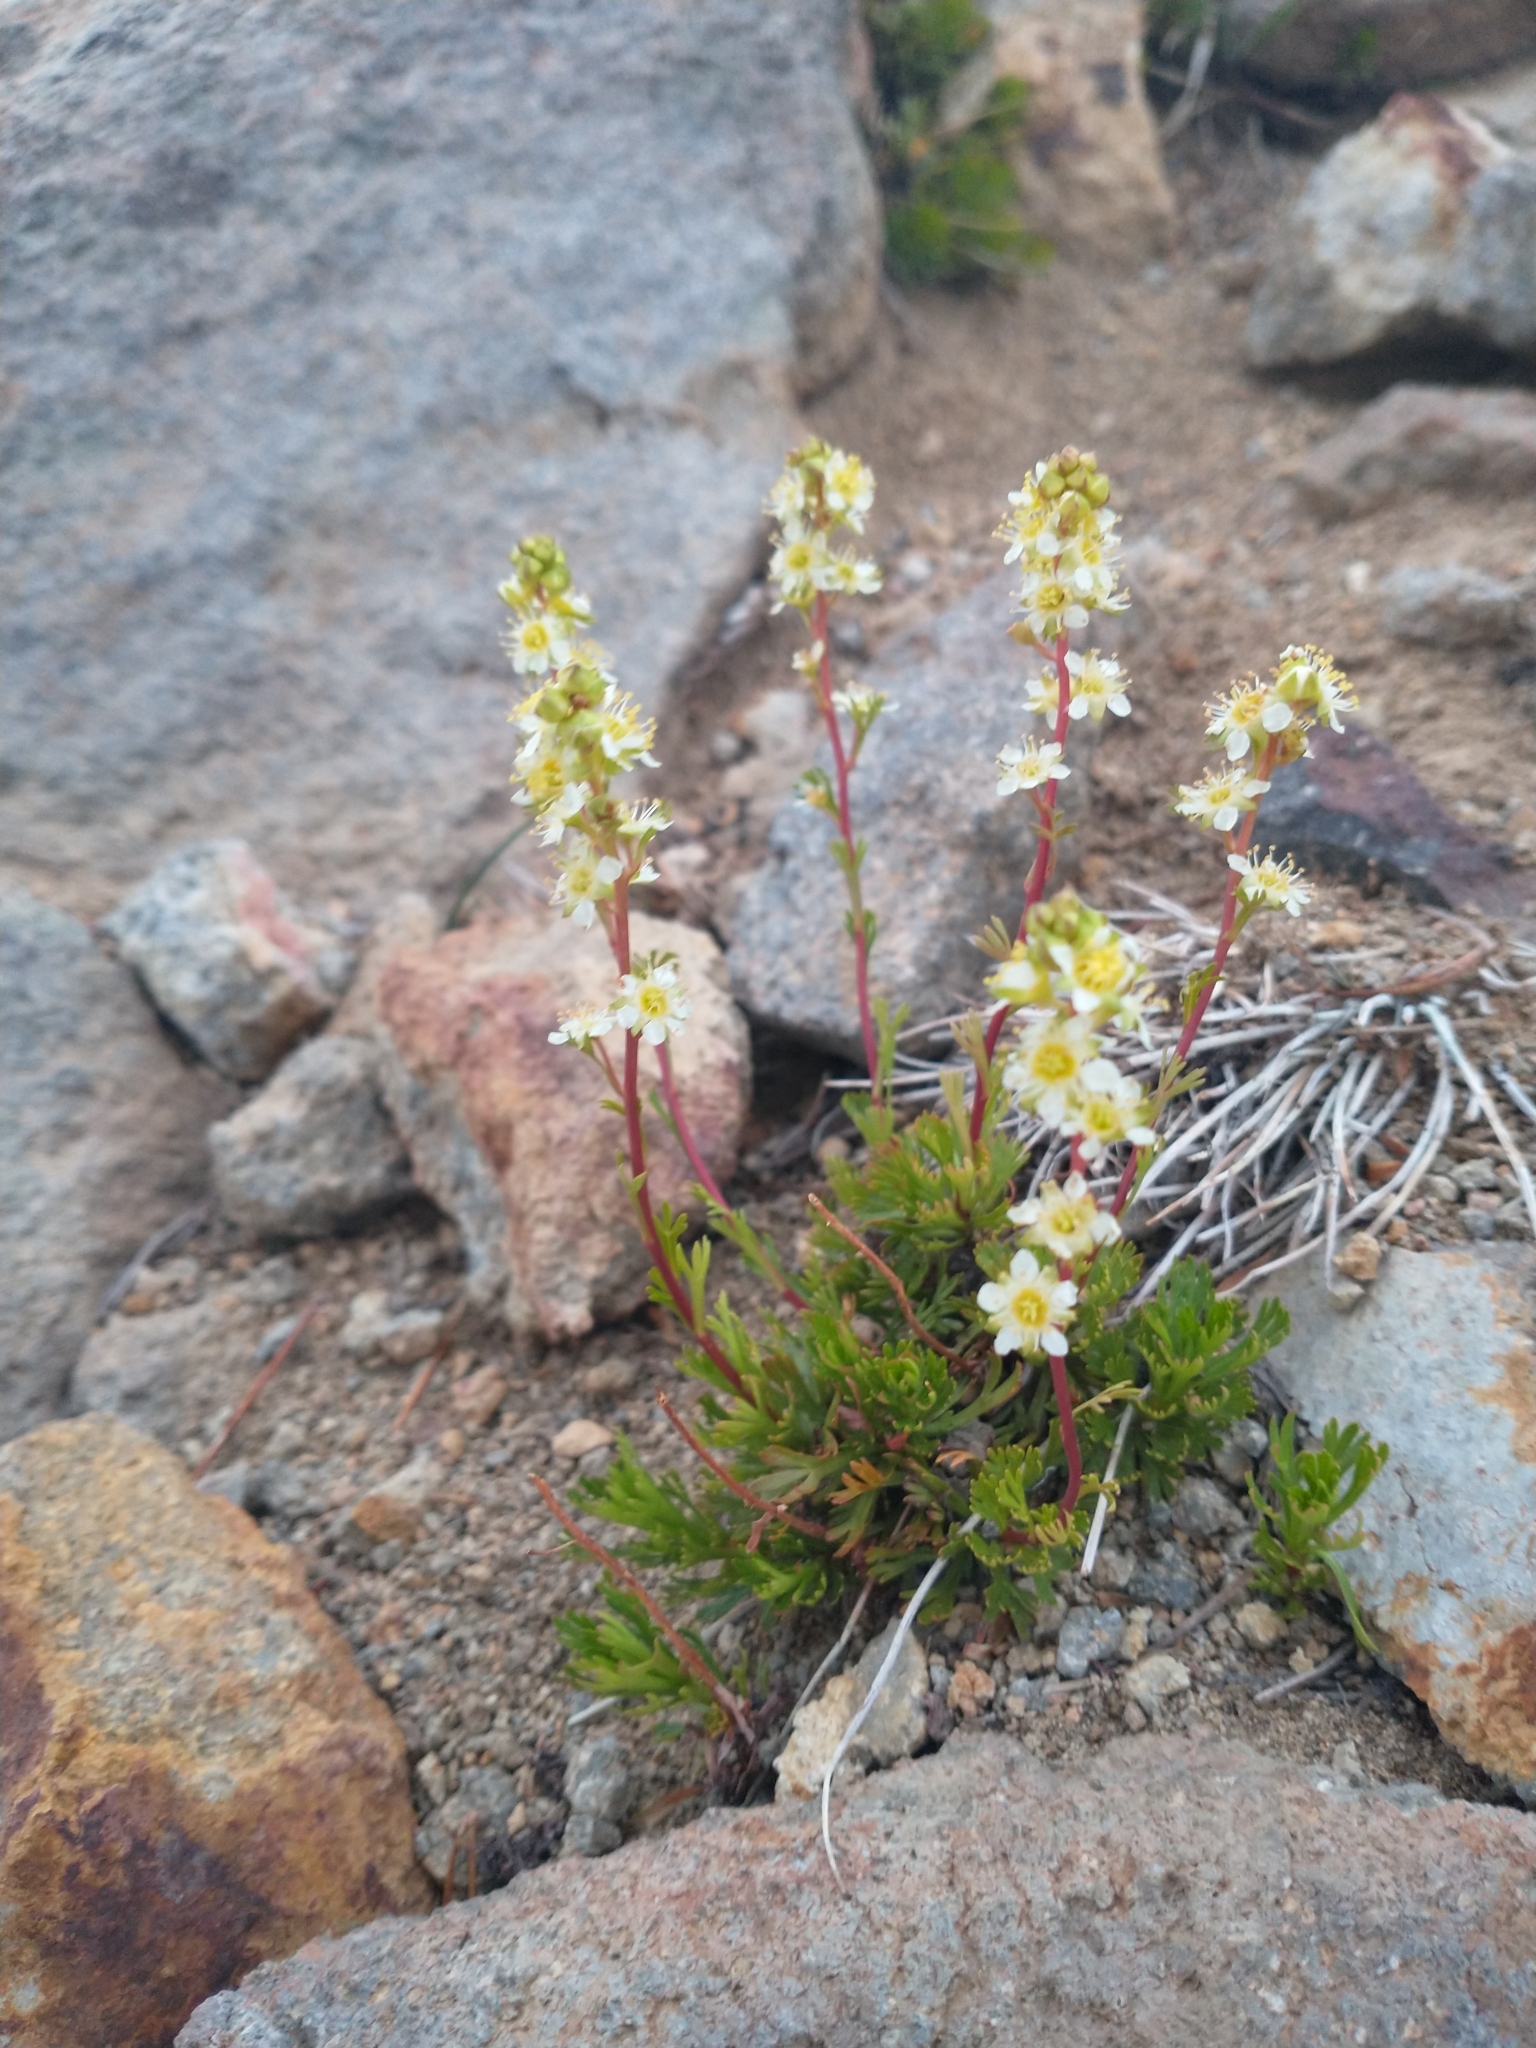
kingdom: Plantae
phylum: Tracheophyta
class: Magnoliopsida
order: Rosales
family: Rosaceae
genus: Luetkea
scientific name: Luetkea pectinata
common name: Partridgefoot
